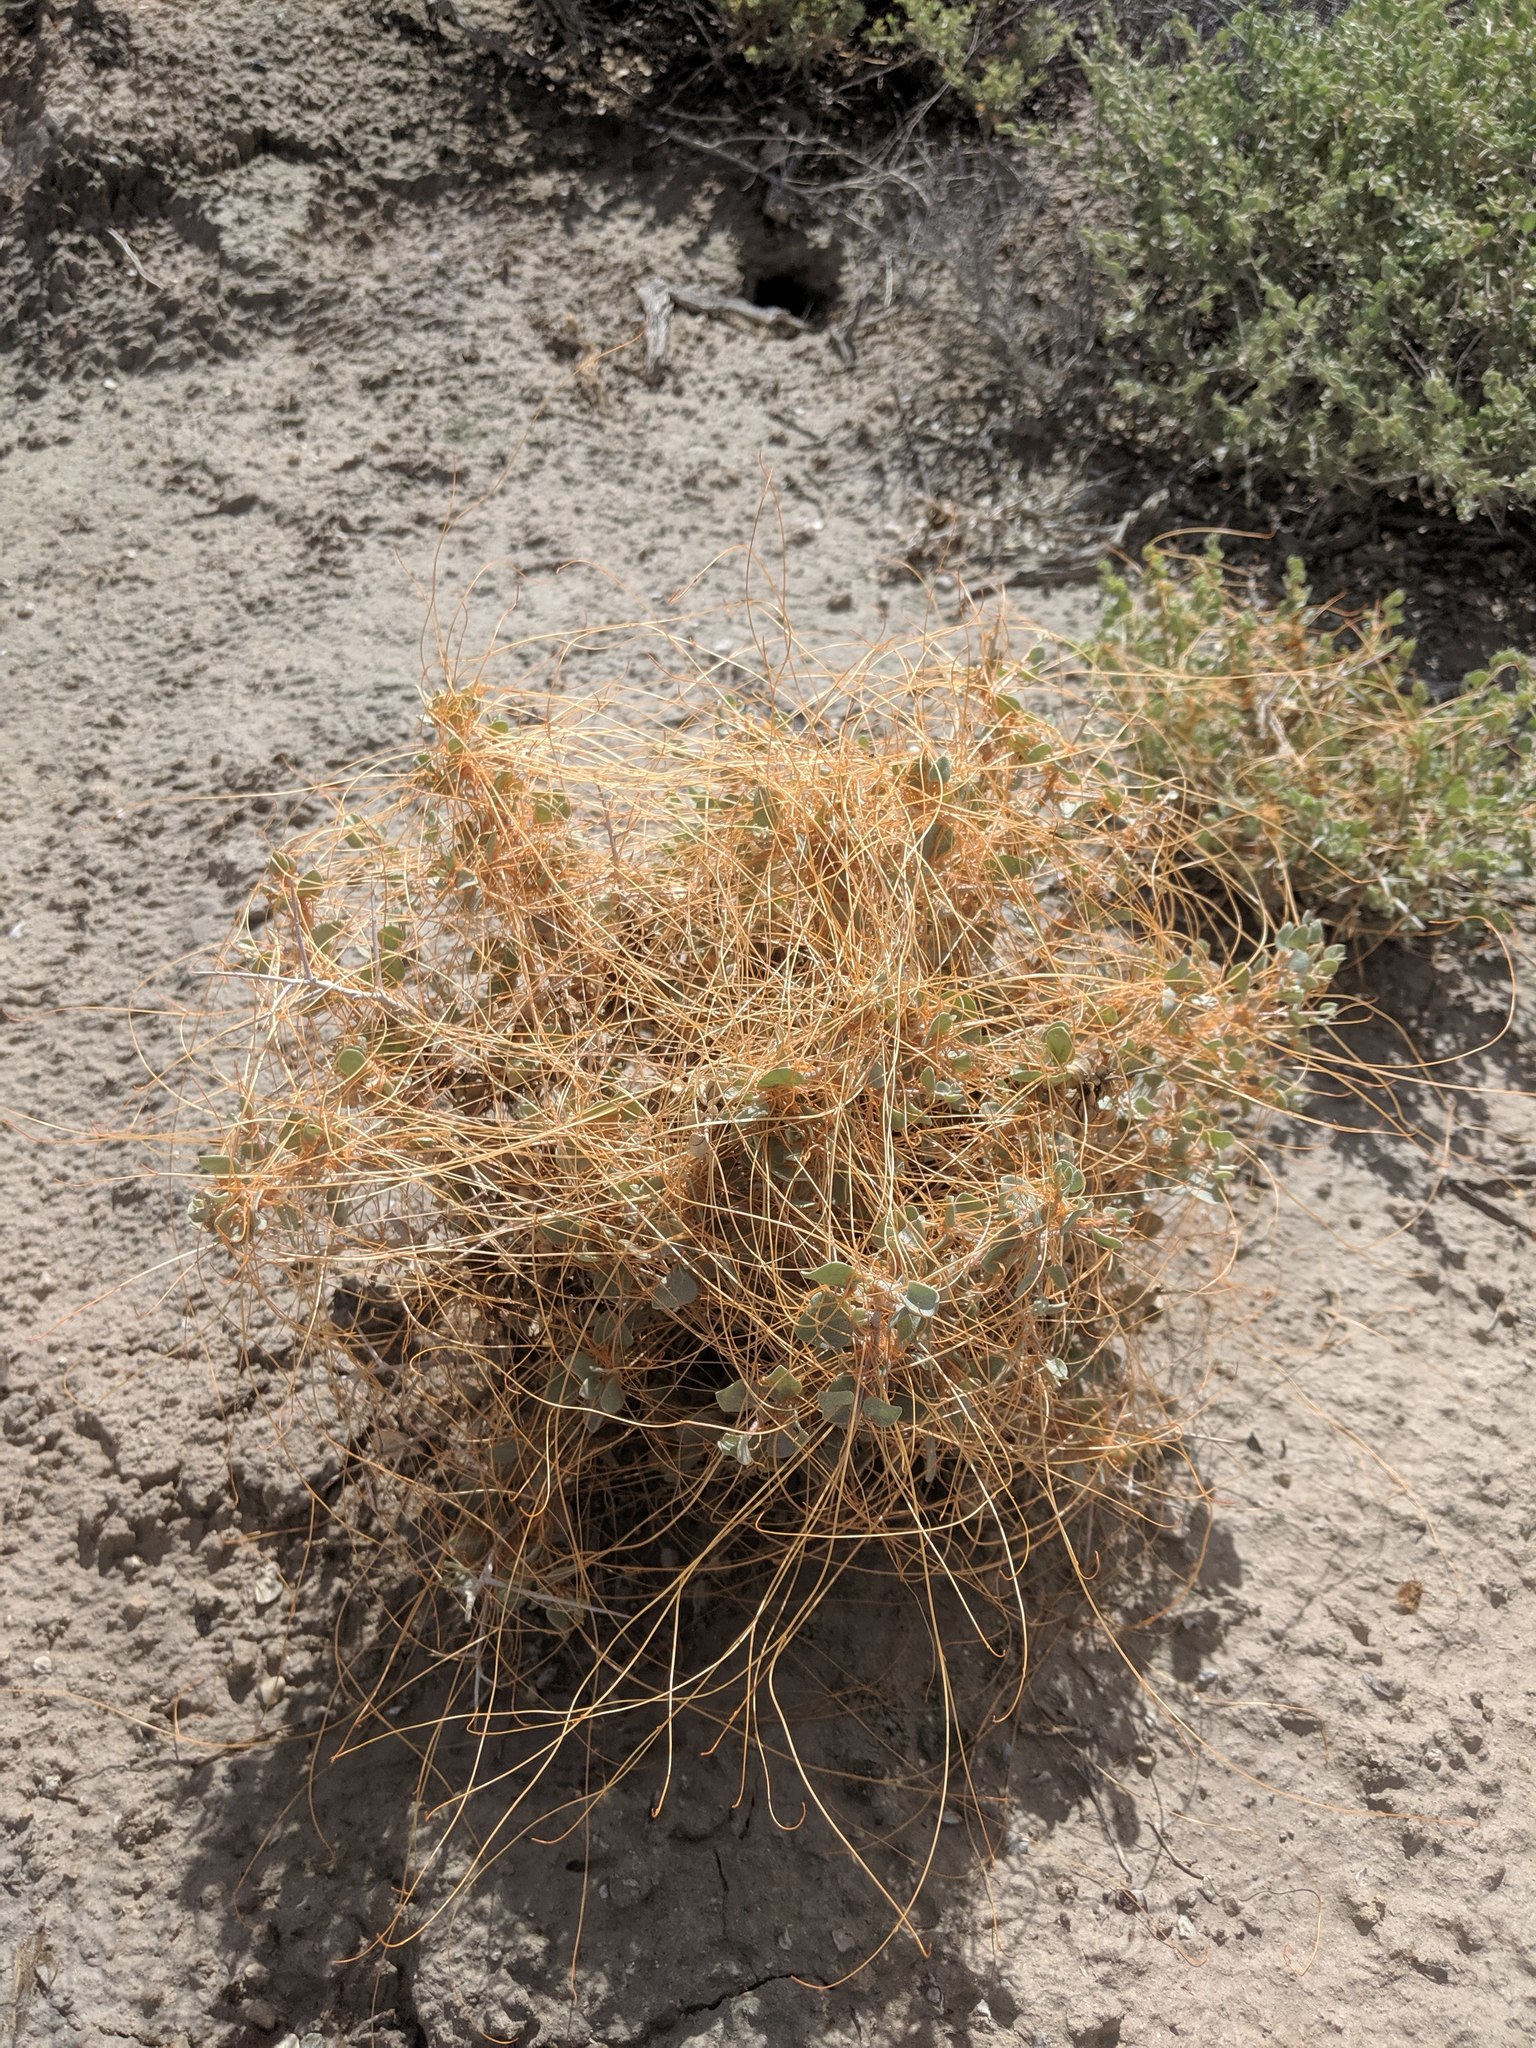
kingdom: Plantae
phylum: Tracheophyta
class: Magnoliopsida
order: Solanales
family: Convolvulaceae
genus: Cuscuta
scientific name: Cuscuta
